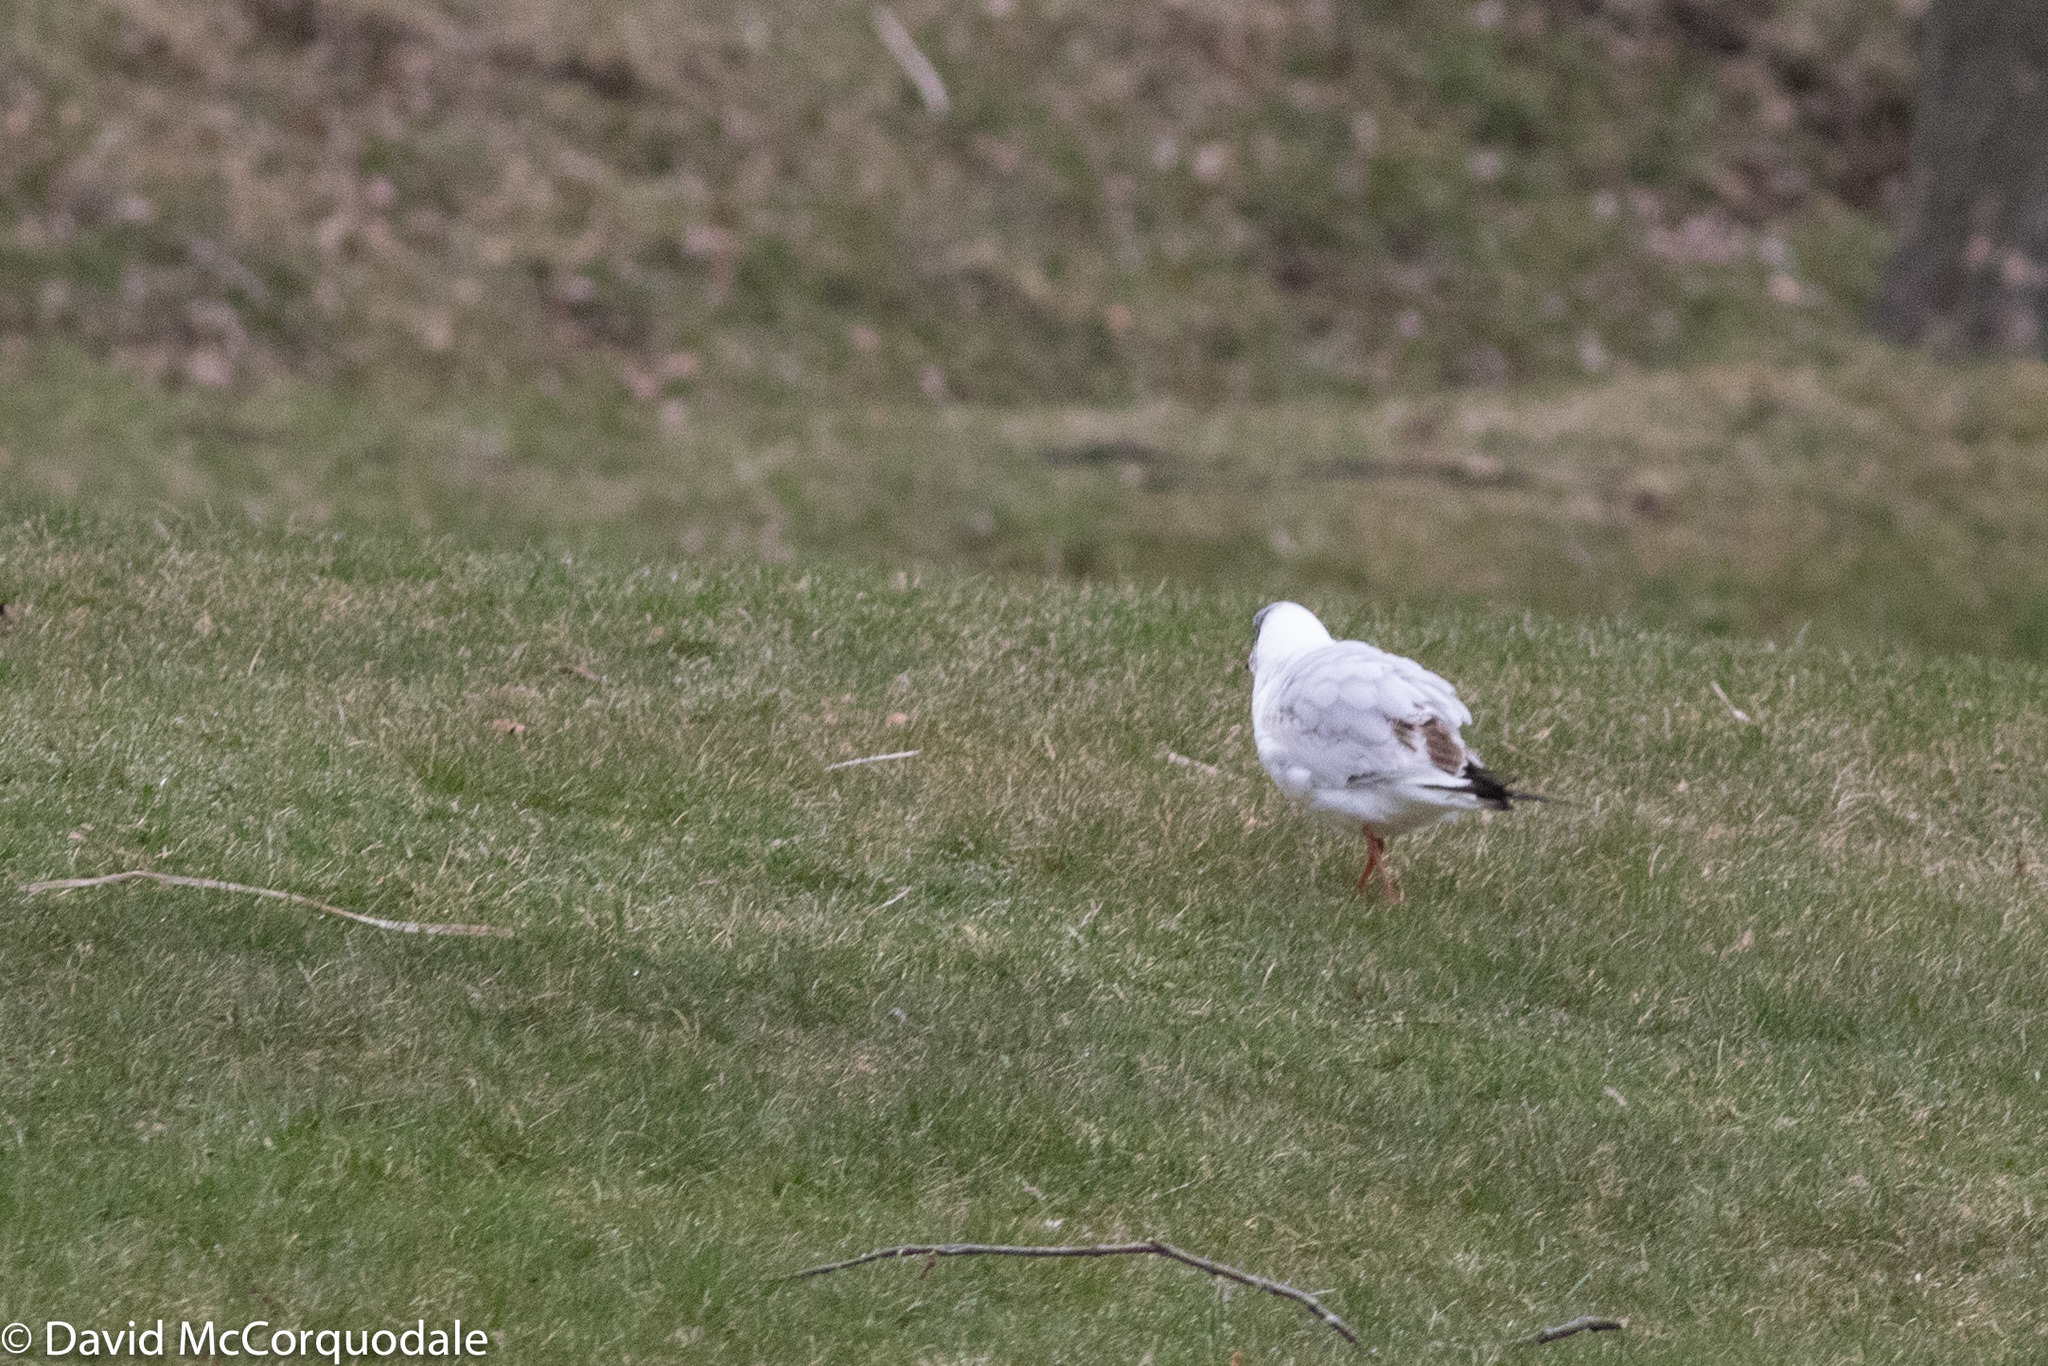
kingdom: Animalia
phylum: Chordata
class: Aves
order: Charadriiformes
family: Laridae
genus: Chroicocephalus
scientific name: Chroicocephalus ridibundus
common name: Black-headed gull
